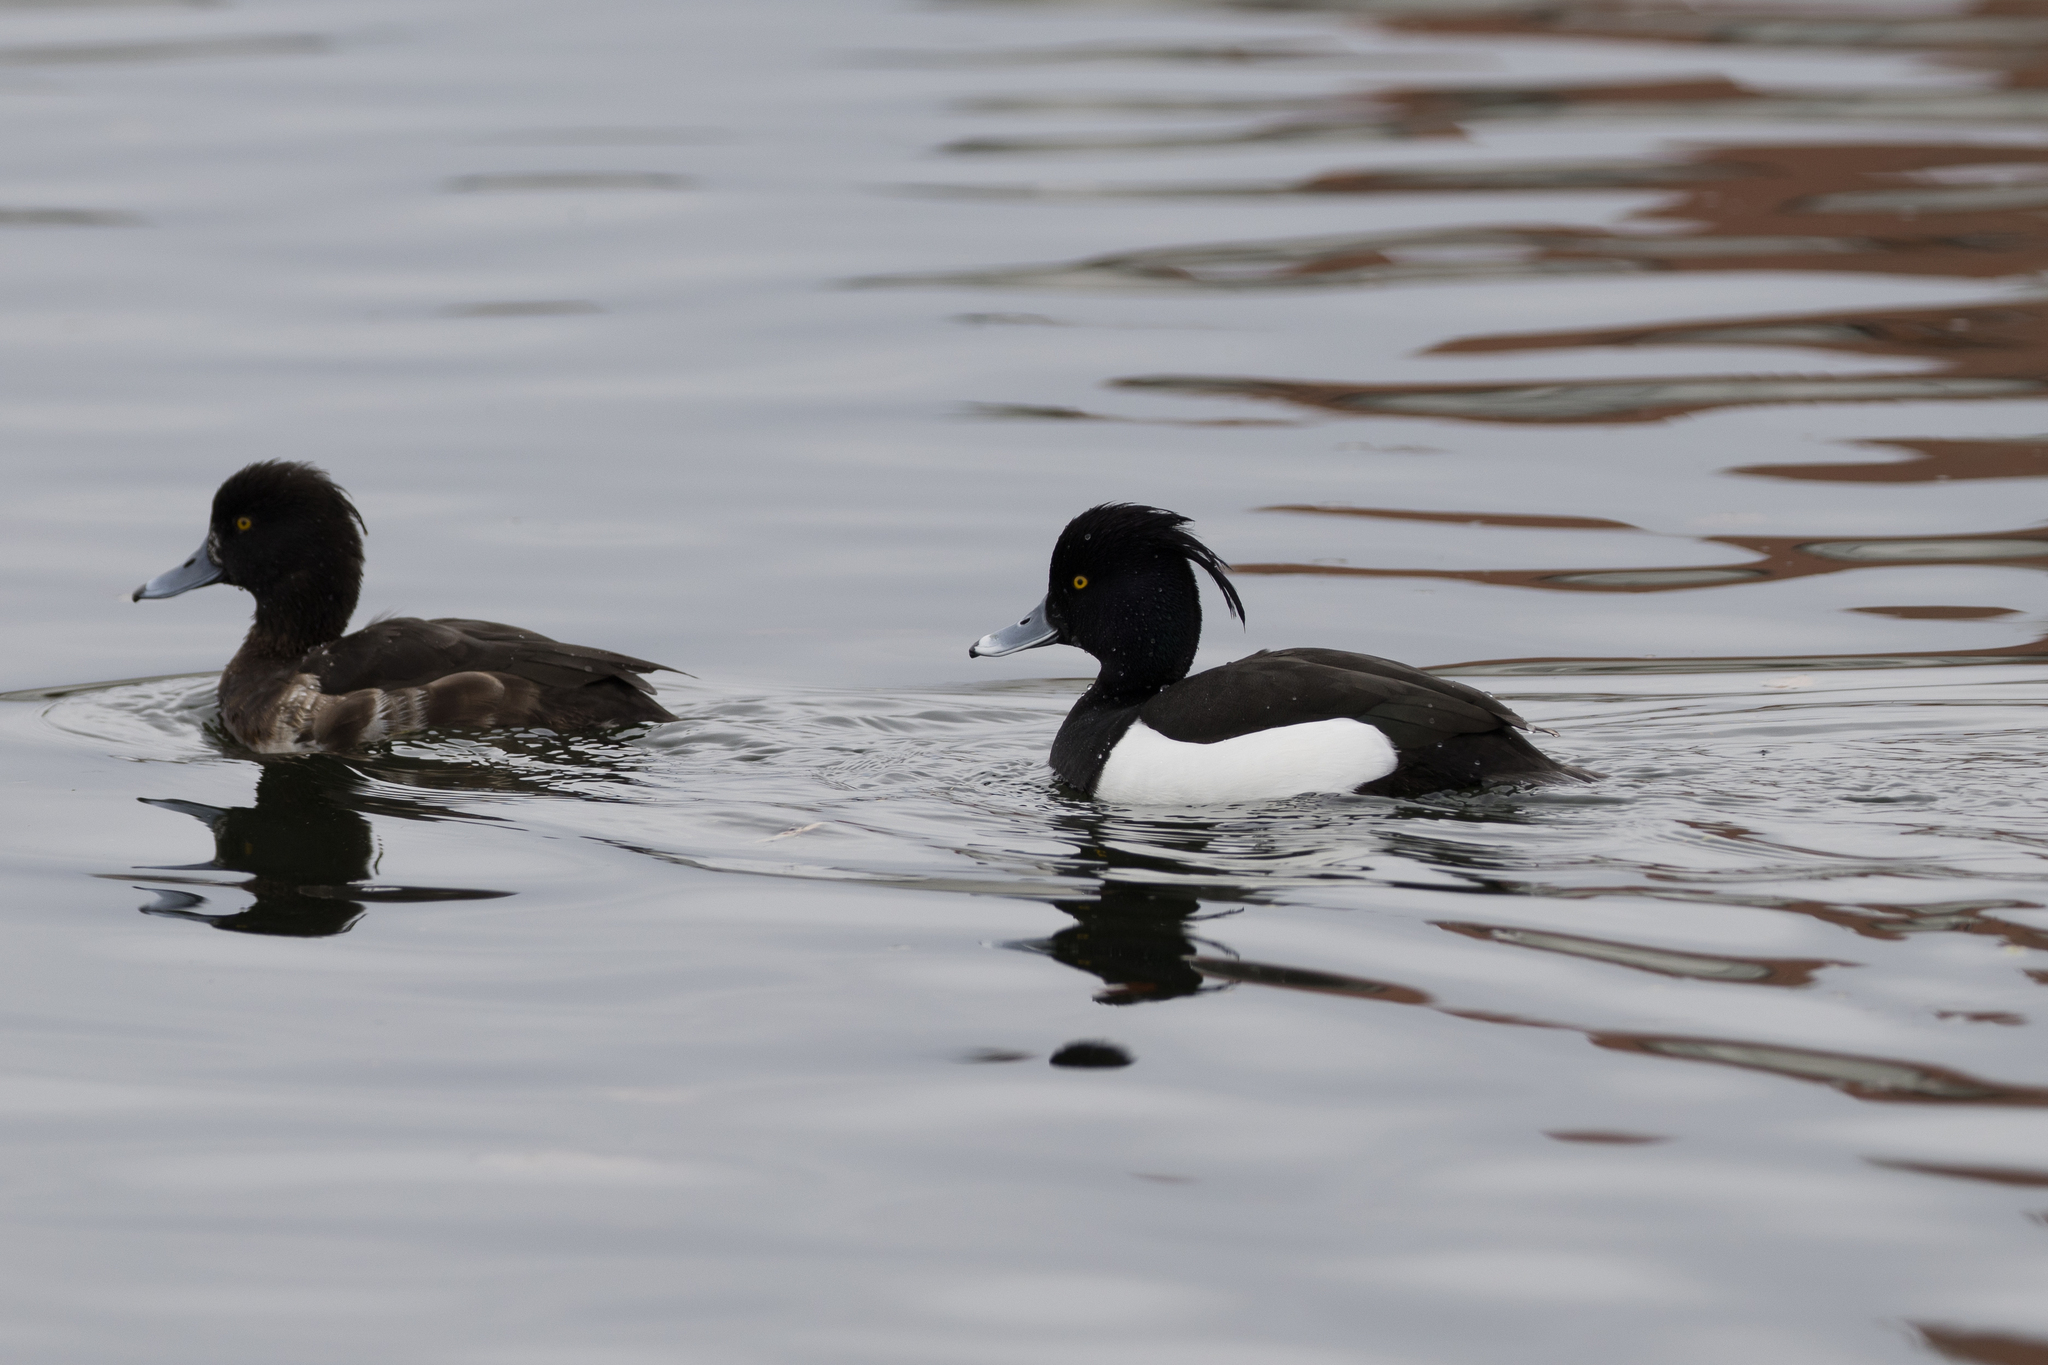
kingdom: Animalia
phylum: Chordata
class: Aves
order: Anseriformes
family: Anatidae
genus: Aythya
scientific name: Aythya fuligula
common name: Tufted duck
